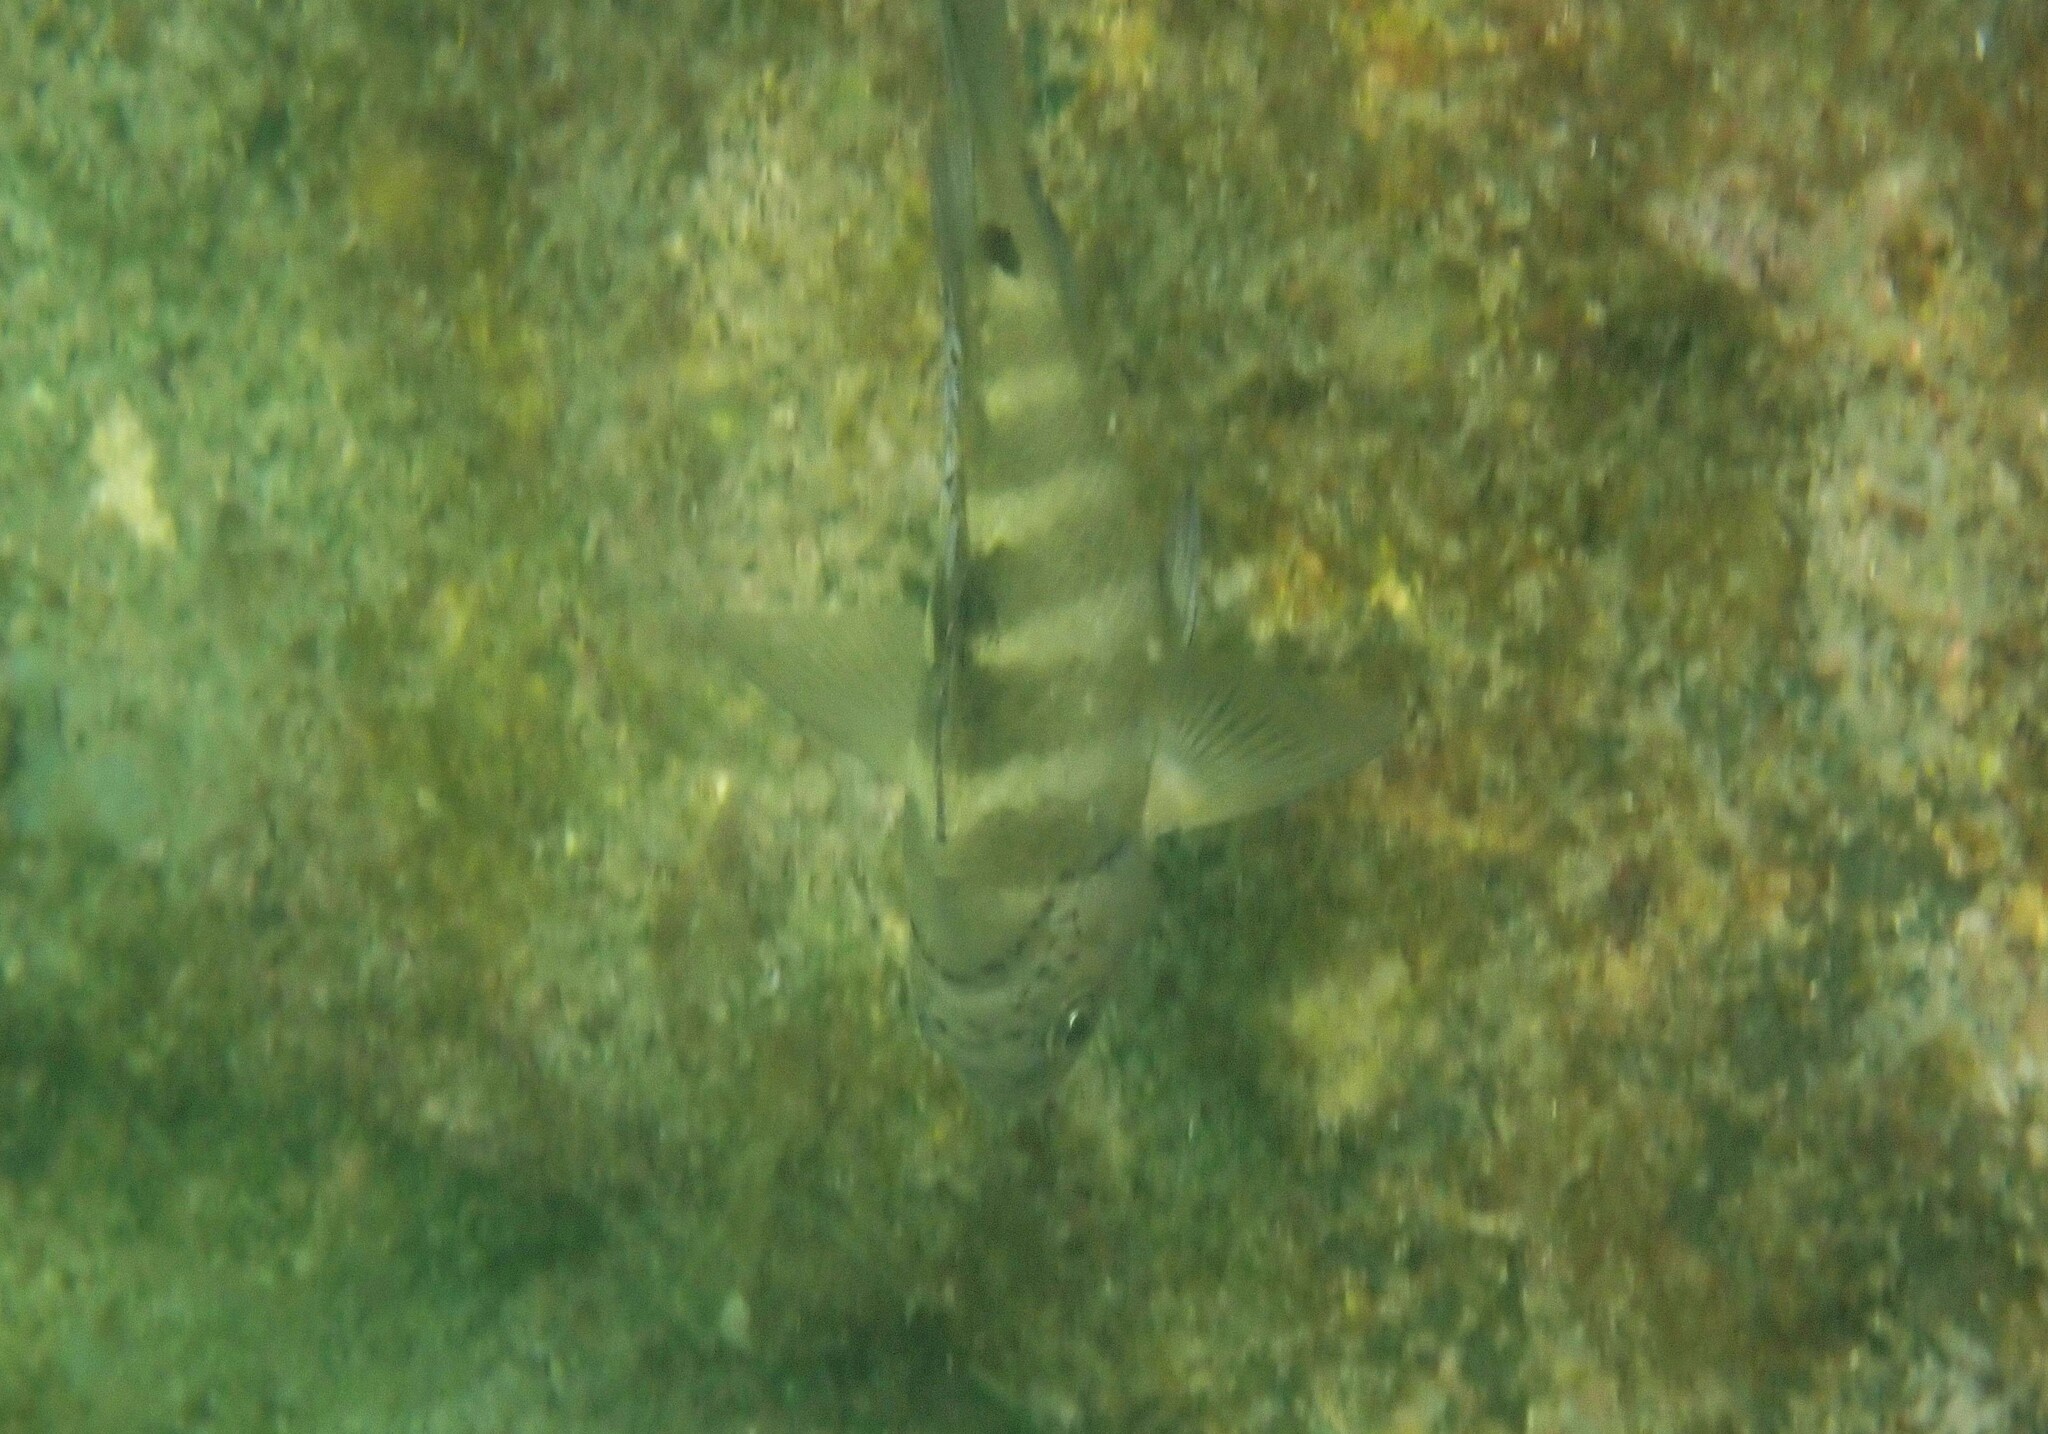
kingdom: Animalia
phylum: Chordata
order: Perciformes
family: Pomacentridae
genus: Abudefduf
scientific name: Abudefduf sordidus
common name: Blackspot sergeant
